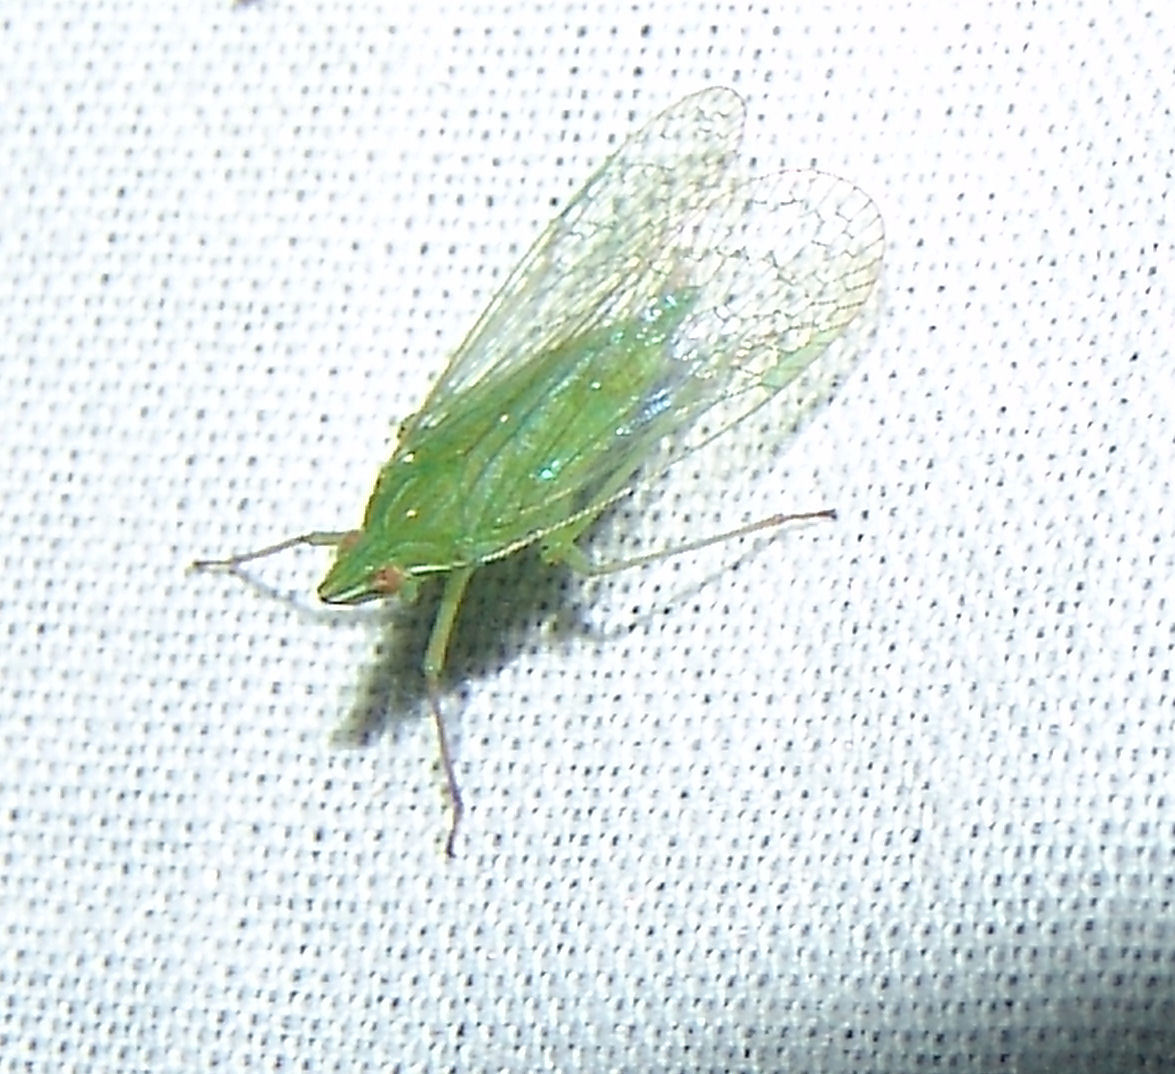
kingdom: Animalia
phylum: Arthropoda
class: Insecta
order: Hemiptera
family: Dictyopharidae
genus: Nersia
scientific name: Nersia florida
